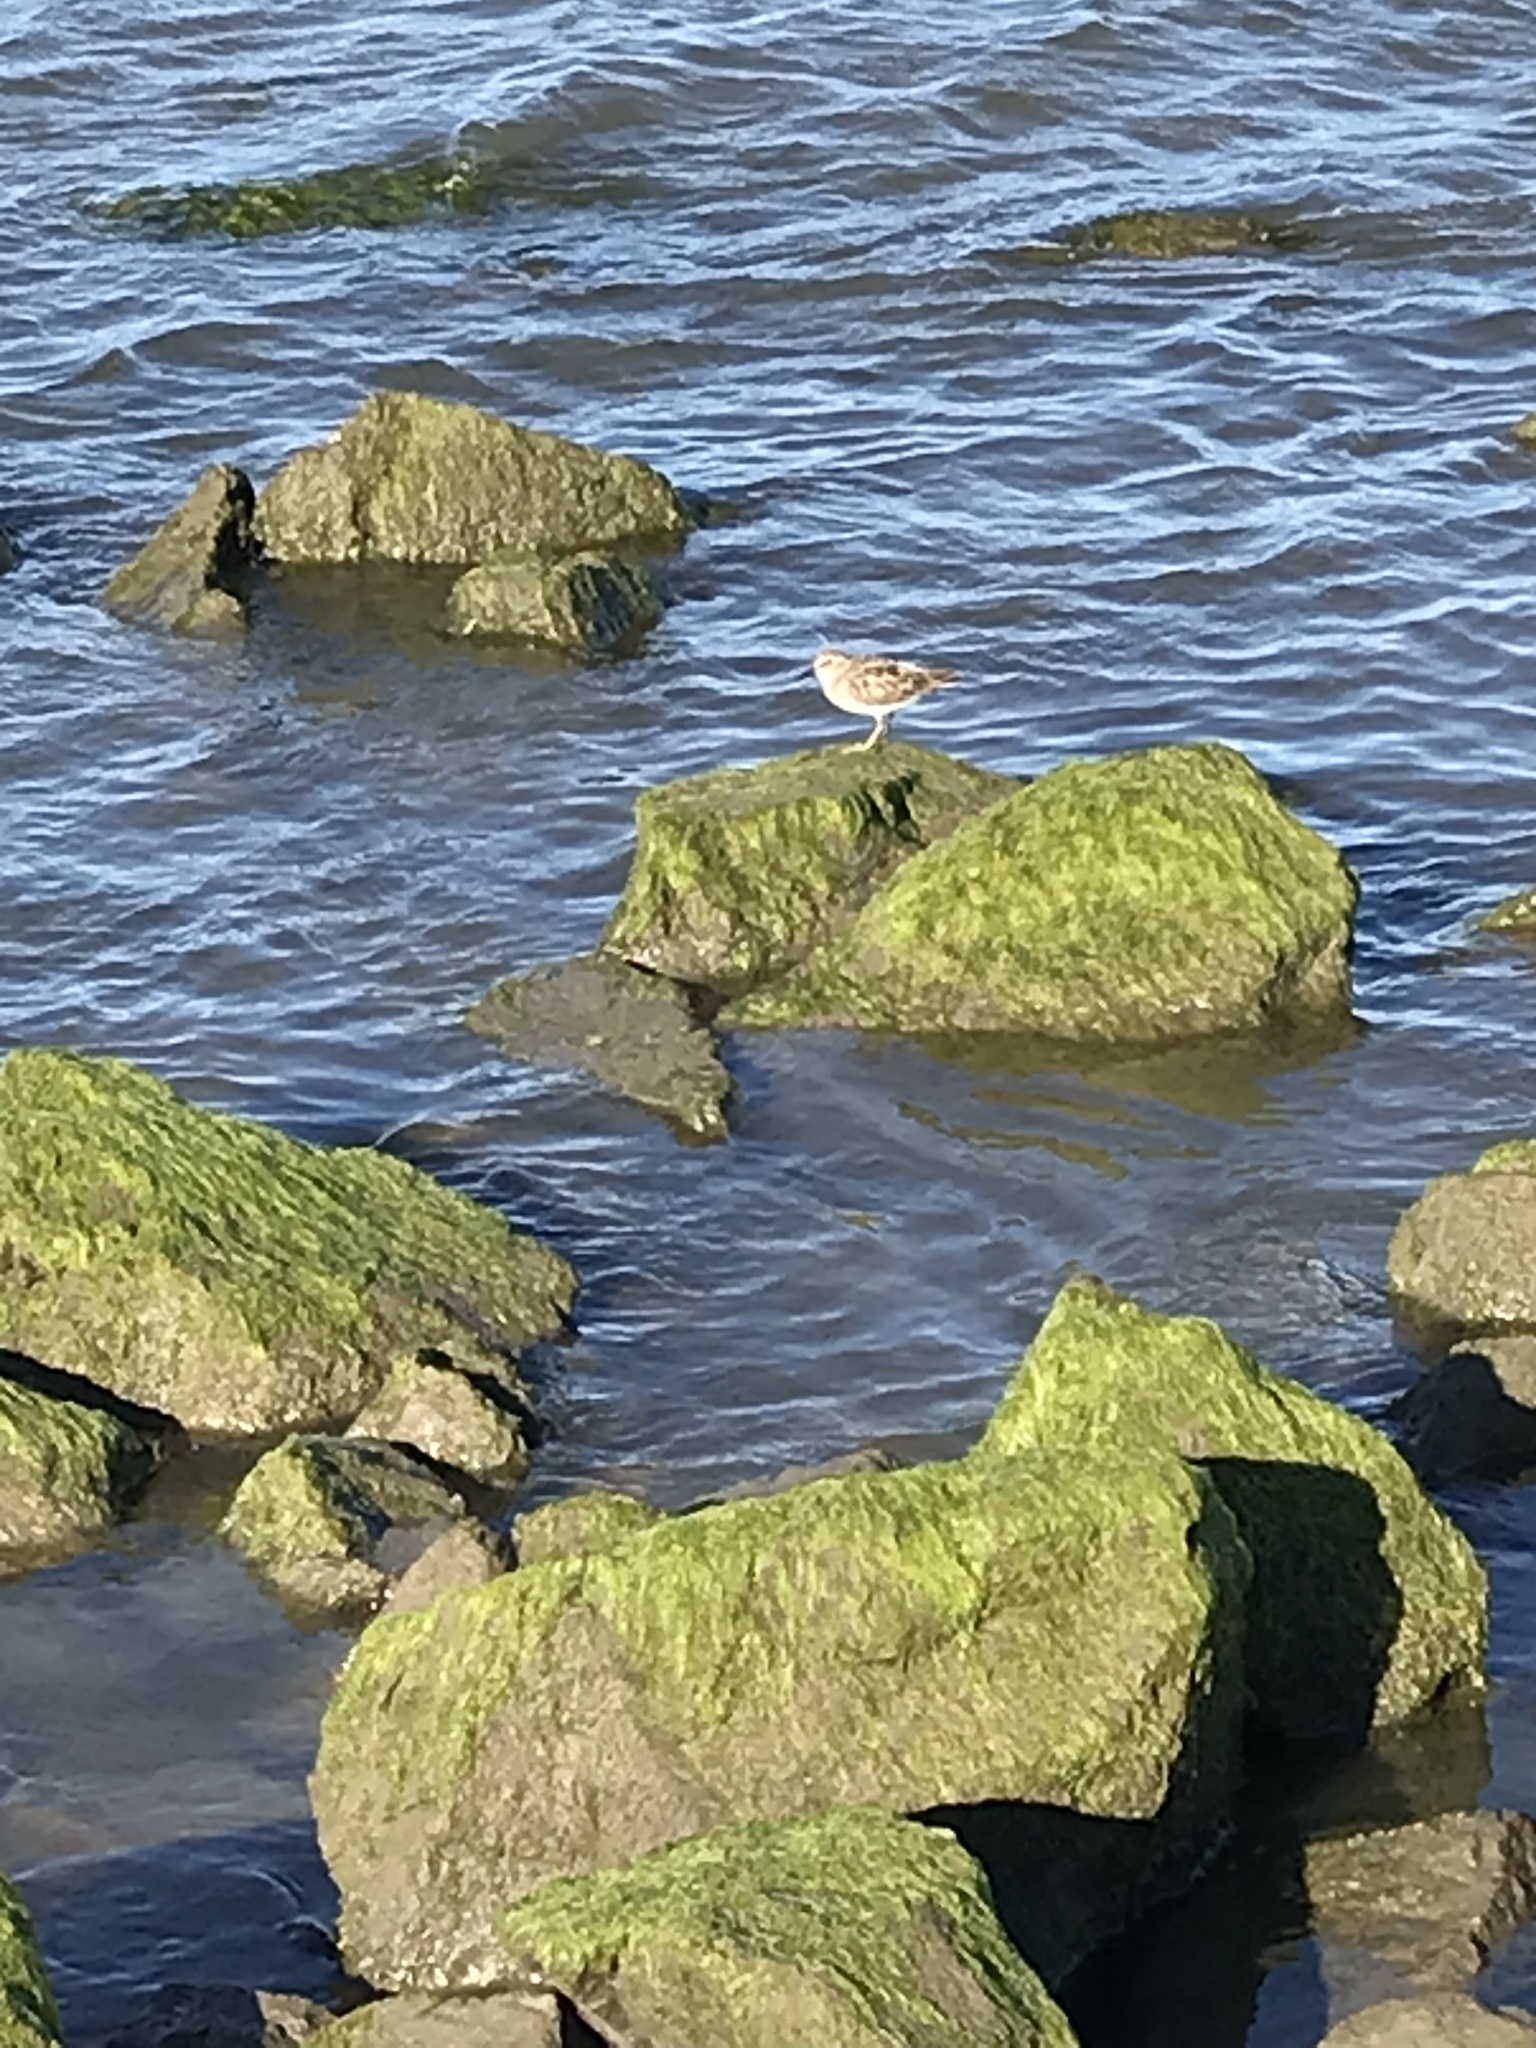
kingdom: Animalia
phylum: Chordata
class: Aves
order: Charadriiformes
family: Scolopacidae
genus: Calidris
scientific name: Calidris minutilla
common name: Least sandpiper
